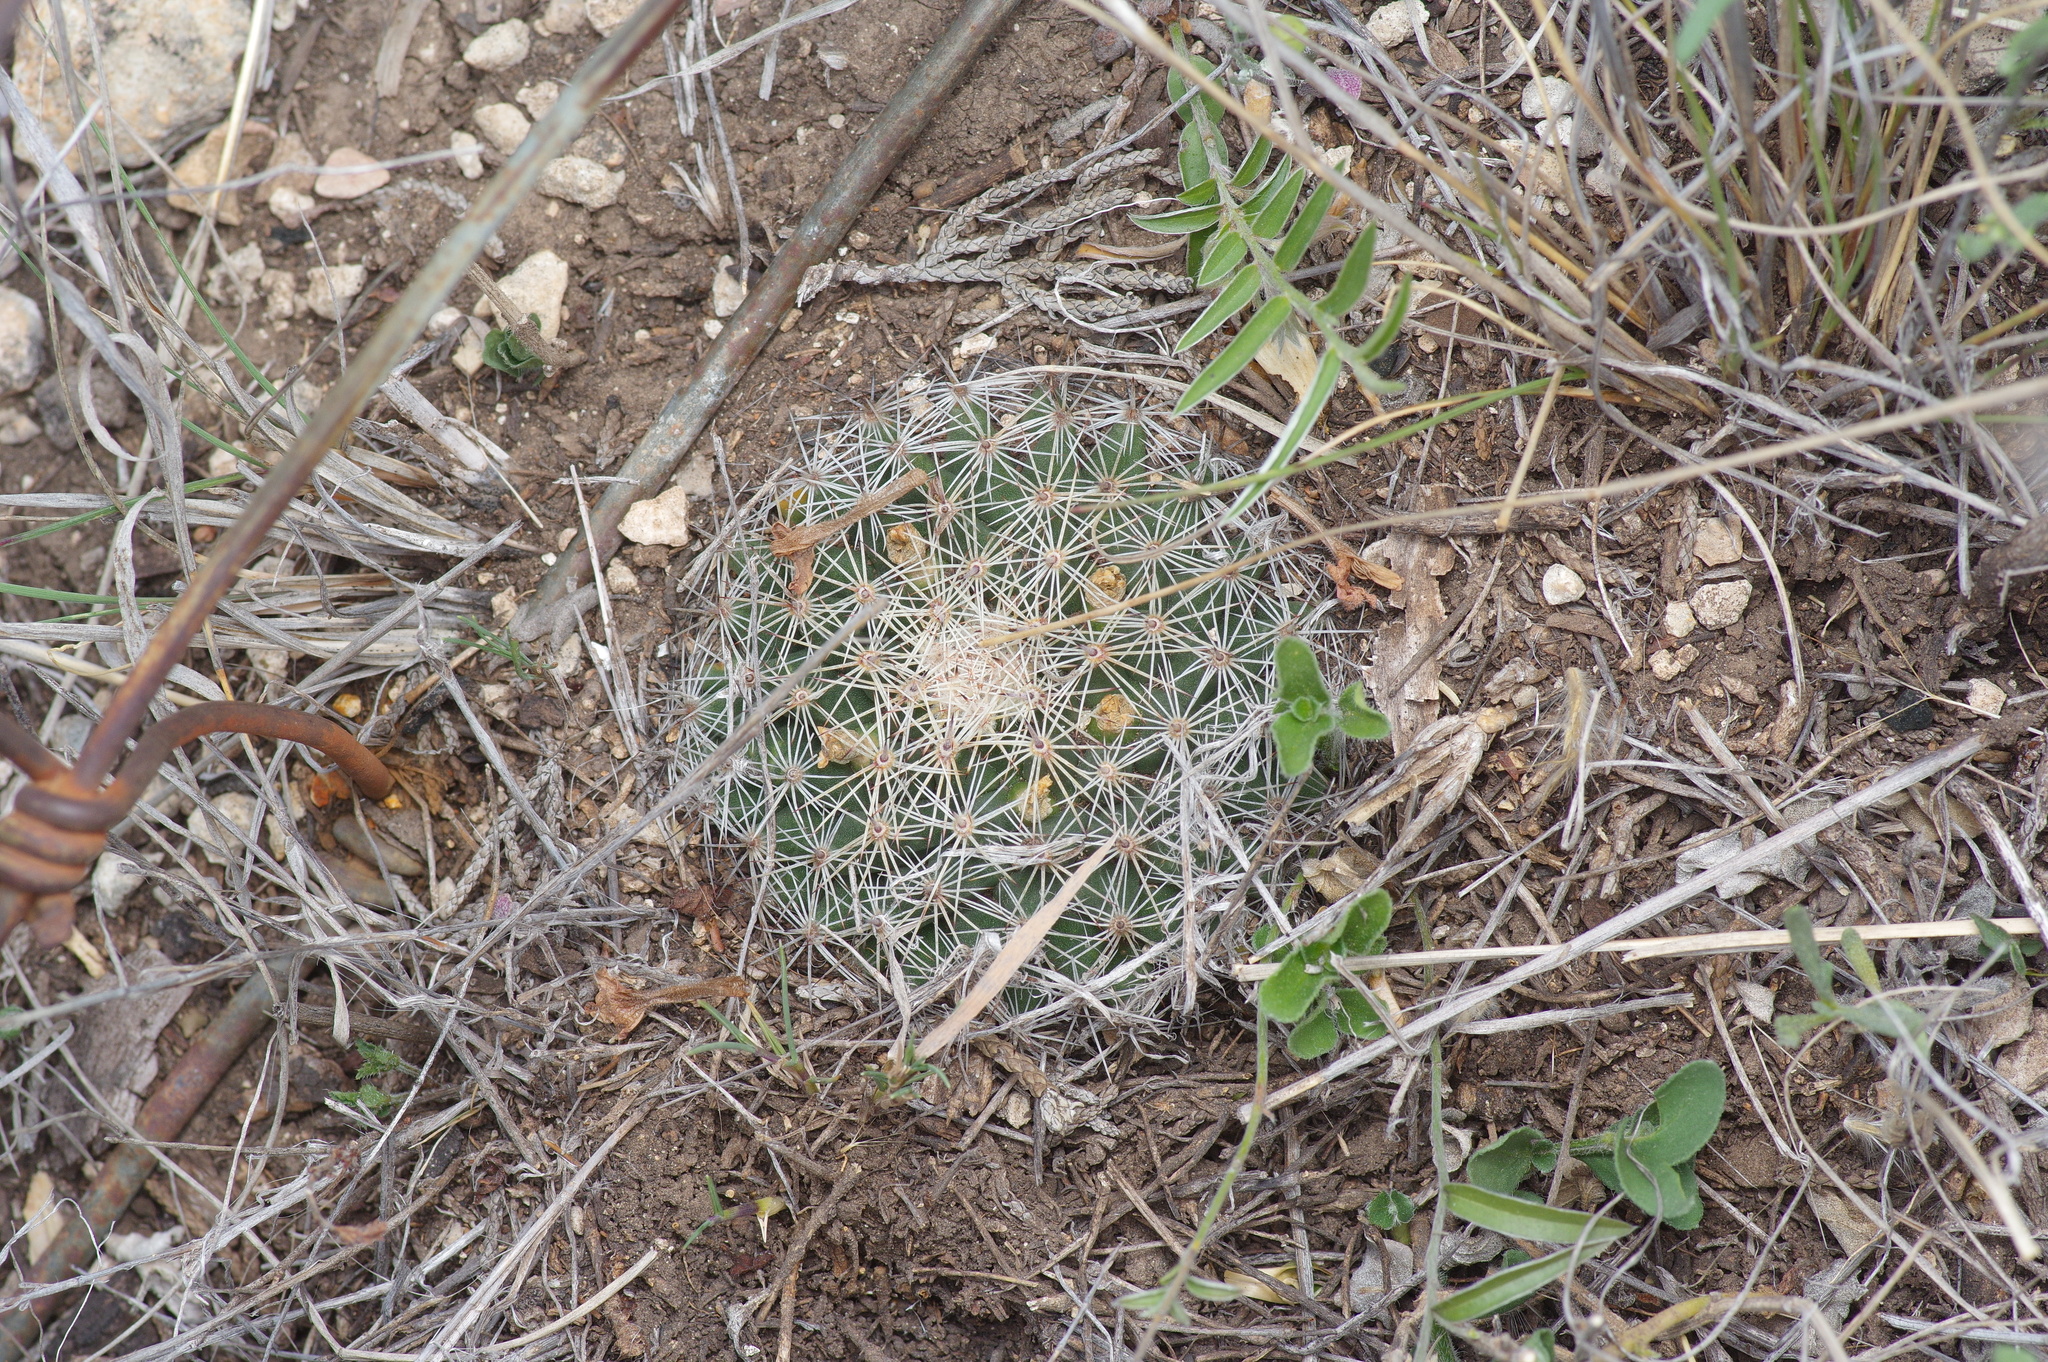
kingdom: Plantae
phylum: Tracheophyta
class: Magnoliopsida
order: Caryophyllales
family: Cactaceae
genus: Mammillaria
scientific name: Mammillaria heyderi
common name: Little nipple cactus
